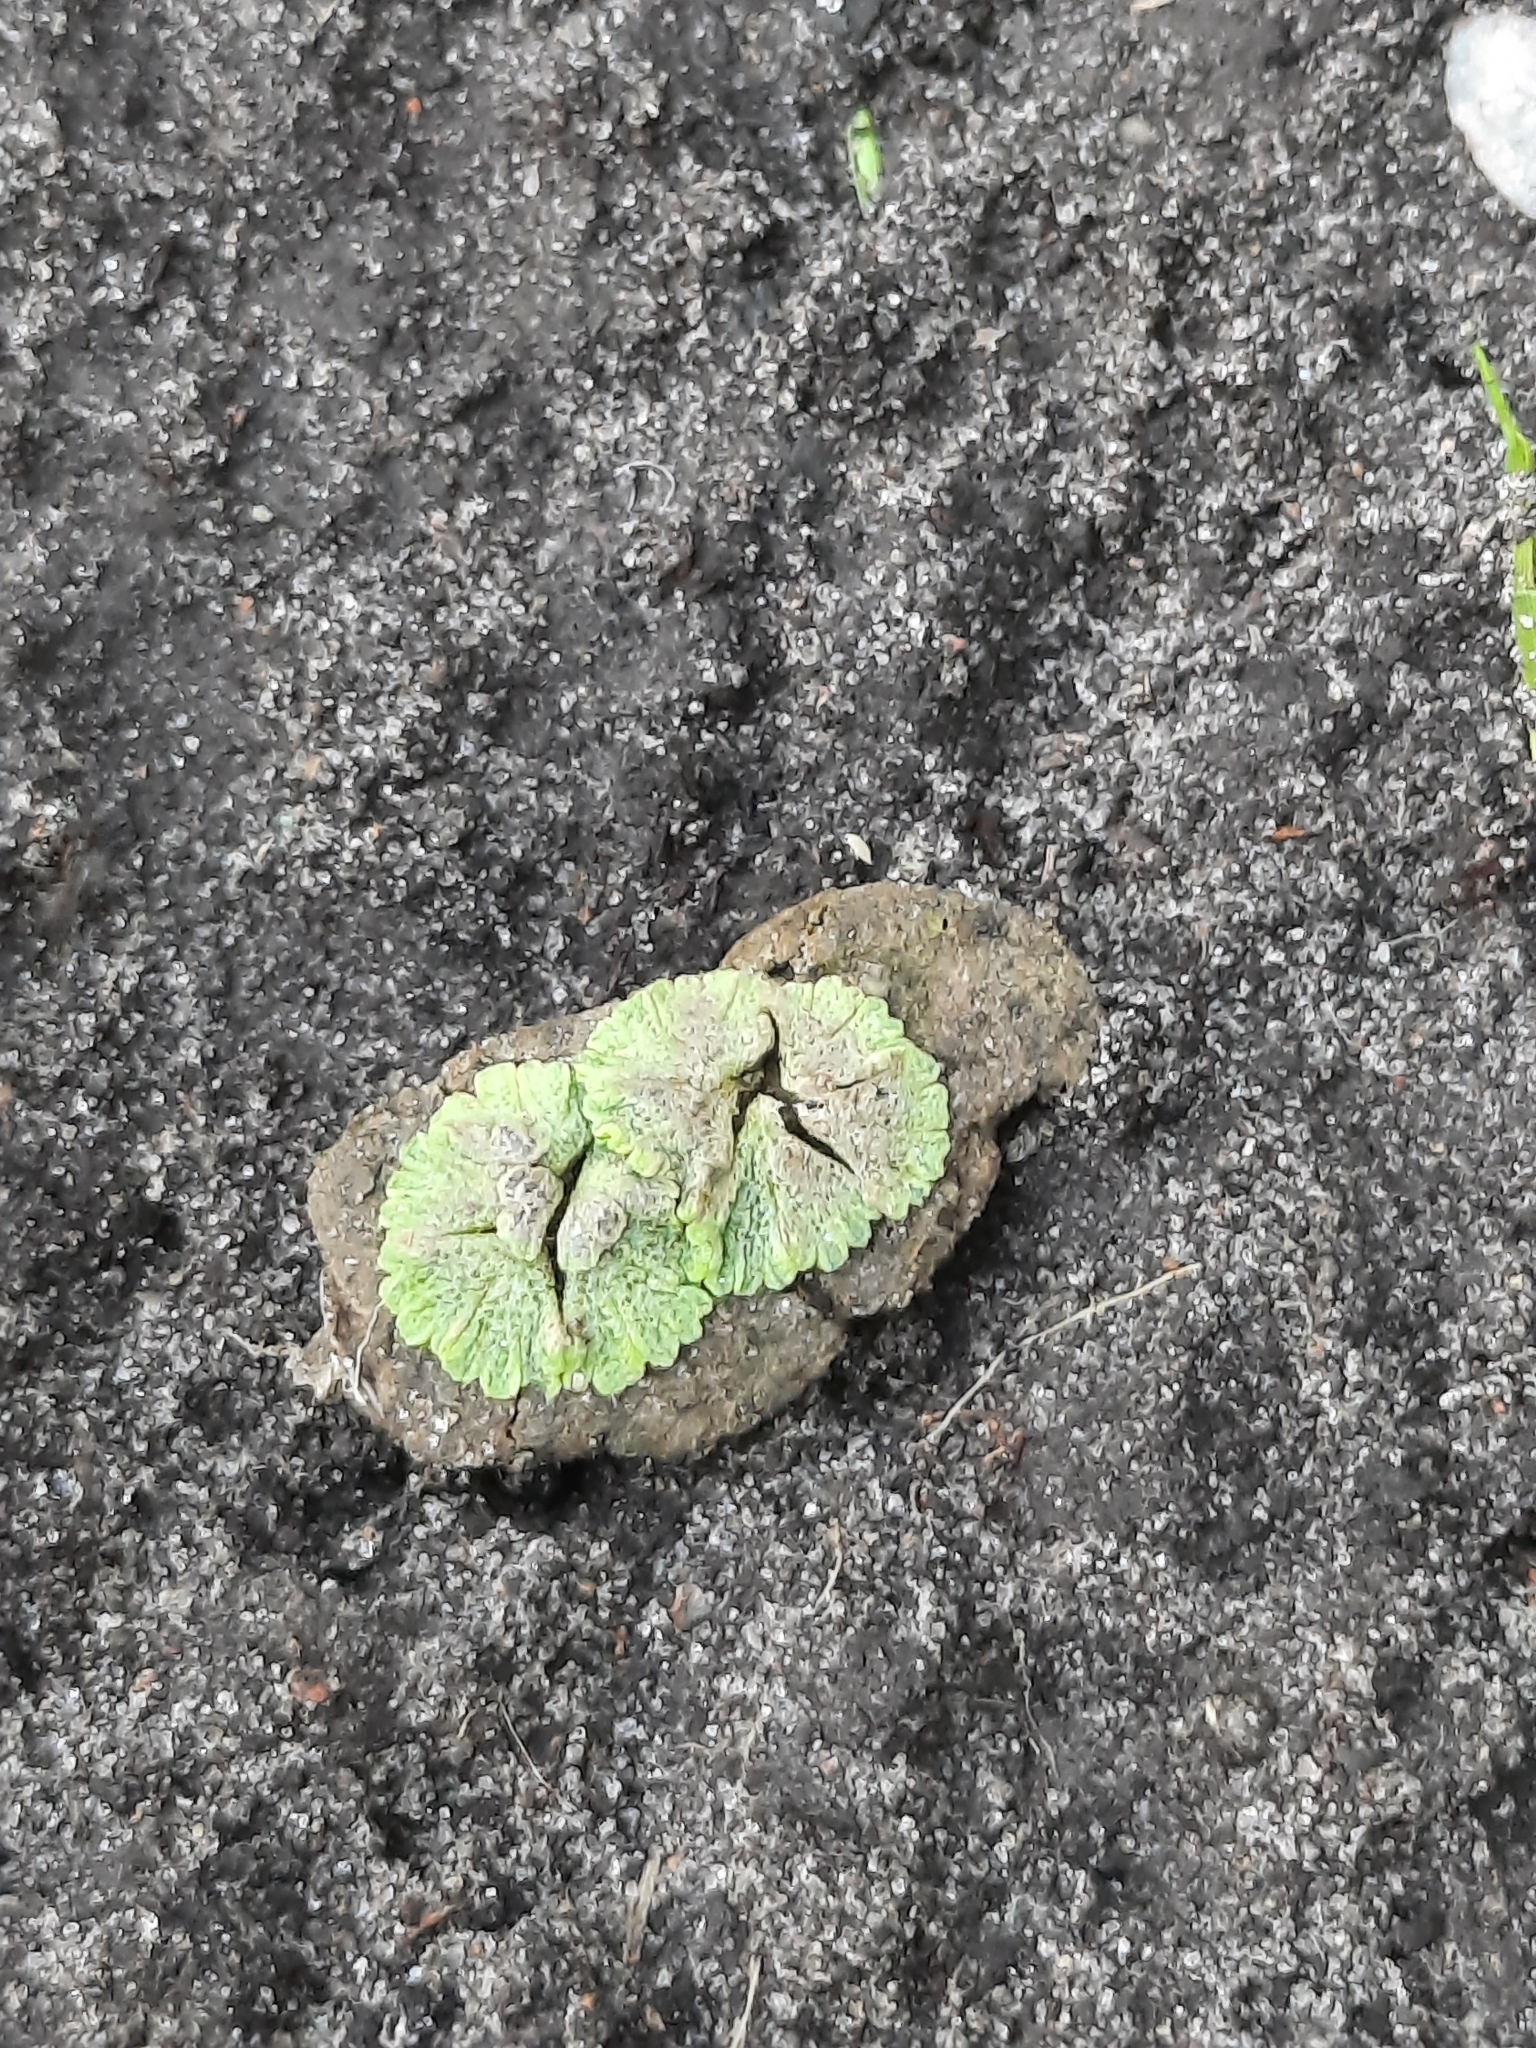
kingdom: Plantae
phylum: Marchantiophyta
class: Marchantiopsida
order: Marchantiales
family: Ricciaceae
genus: Riccia
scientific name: Riccia cavernosa
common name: Cavernous crystalwort
